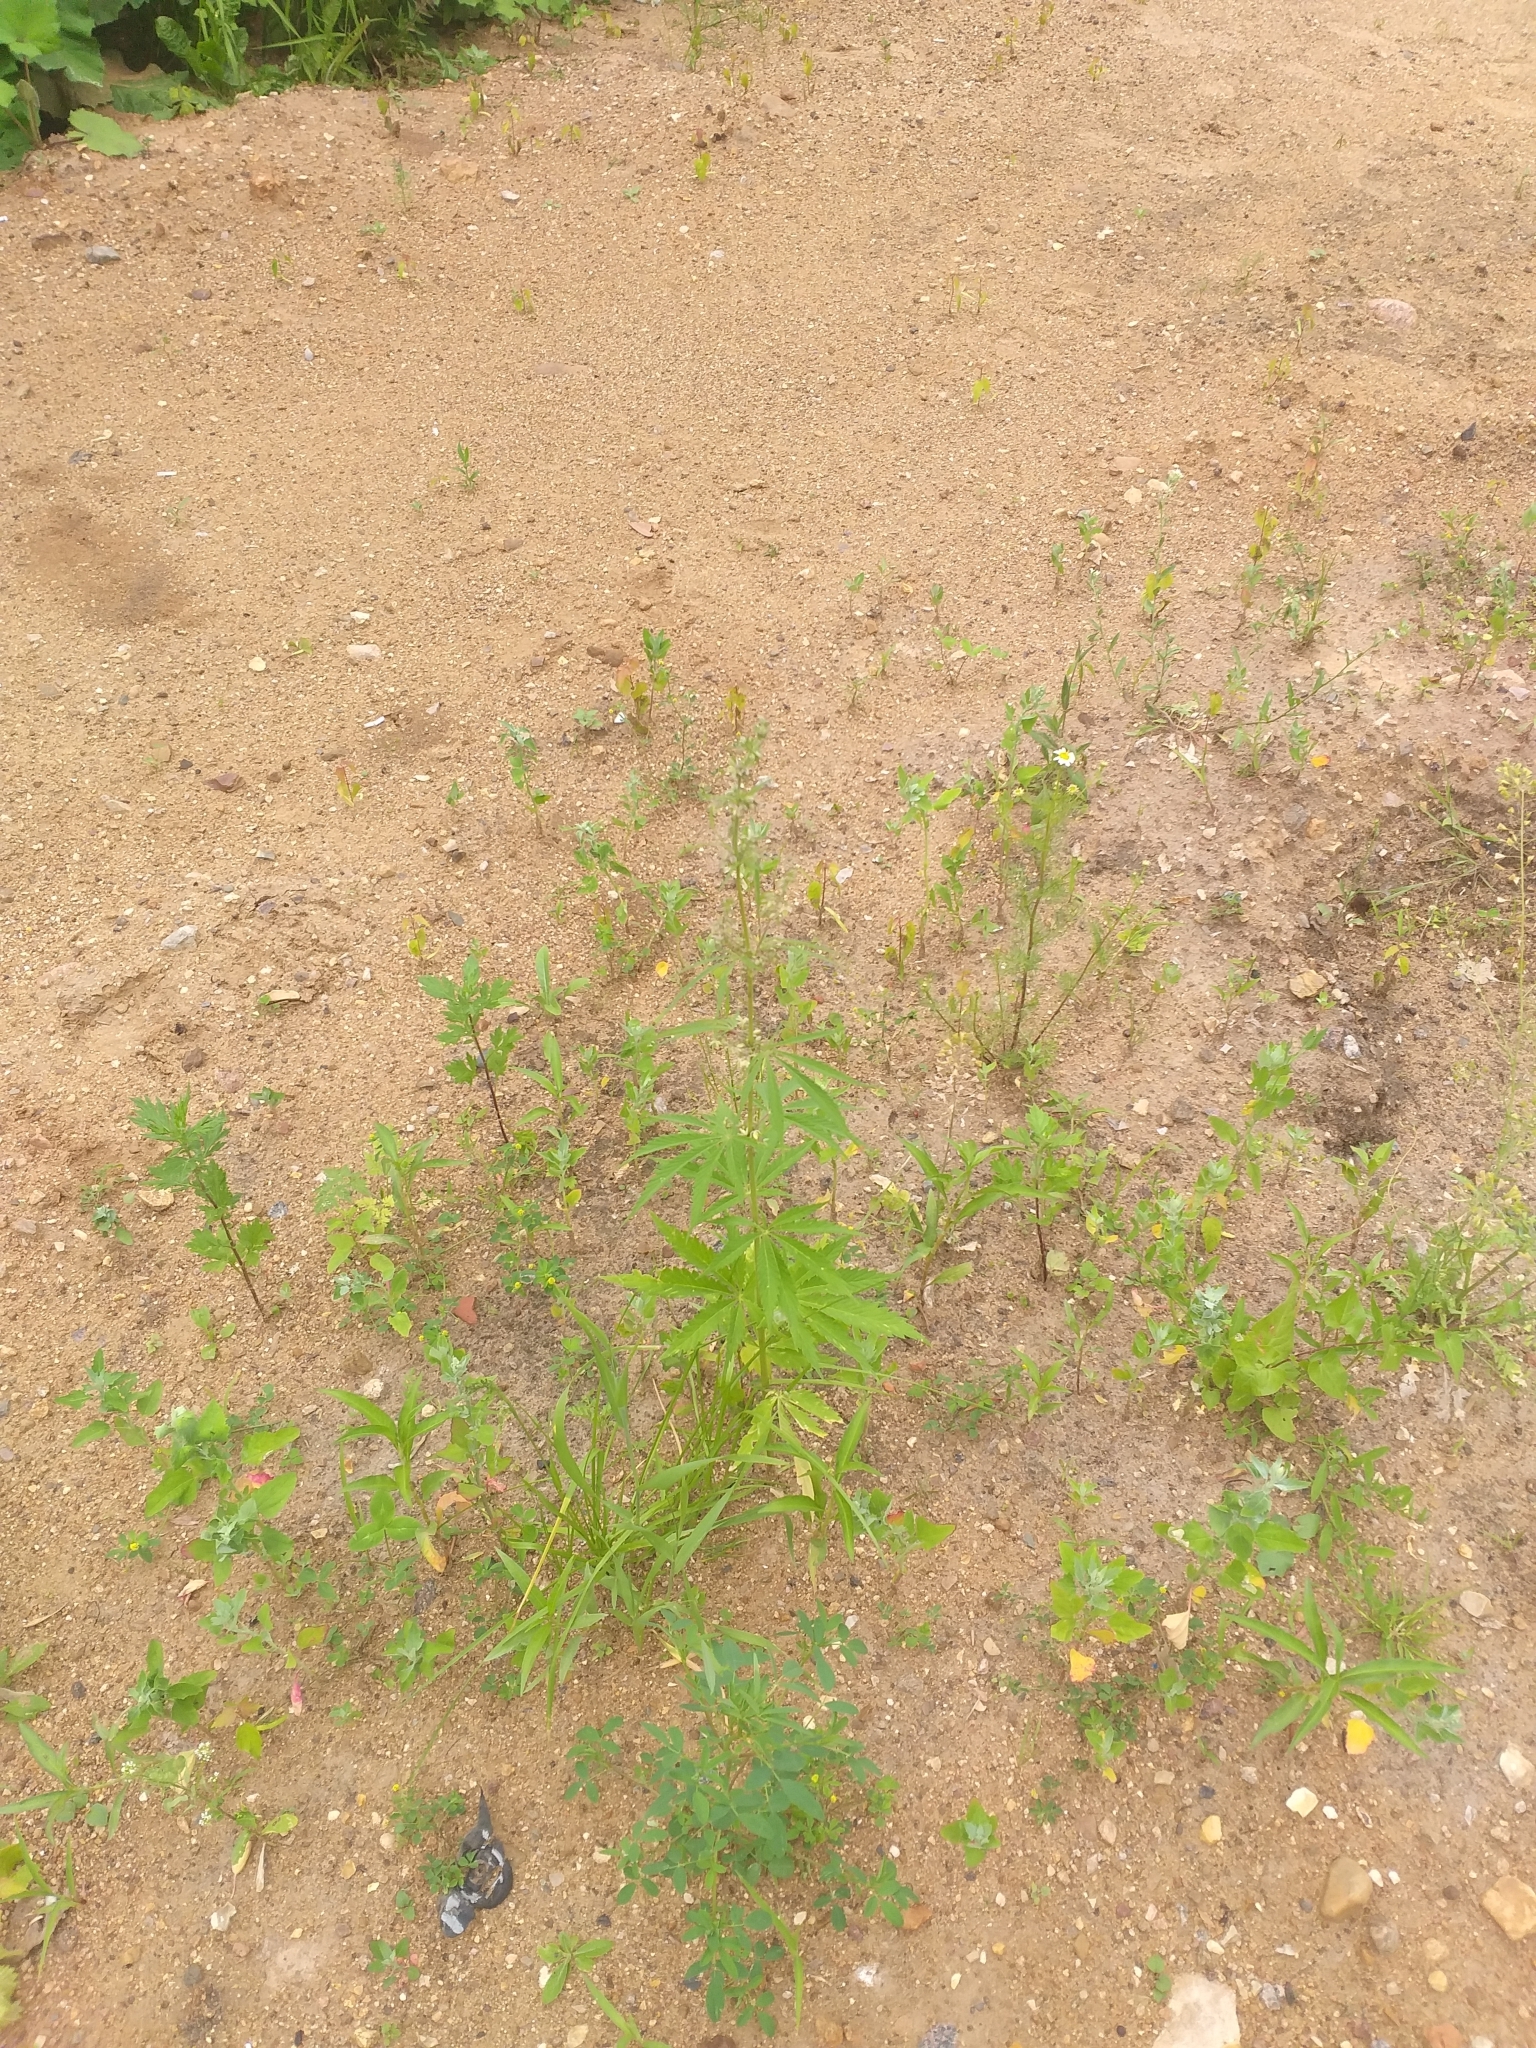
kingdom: Plantae
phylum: Tracheophyta
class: Magnoliopsida
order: Rosales
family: Cannabaceae
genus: Cannabis
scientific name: Cannabis sativa
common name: Hemp
